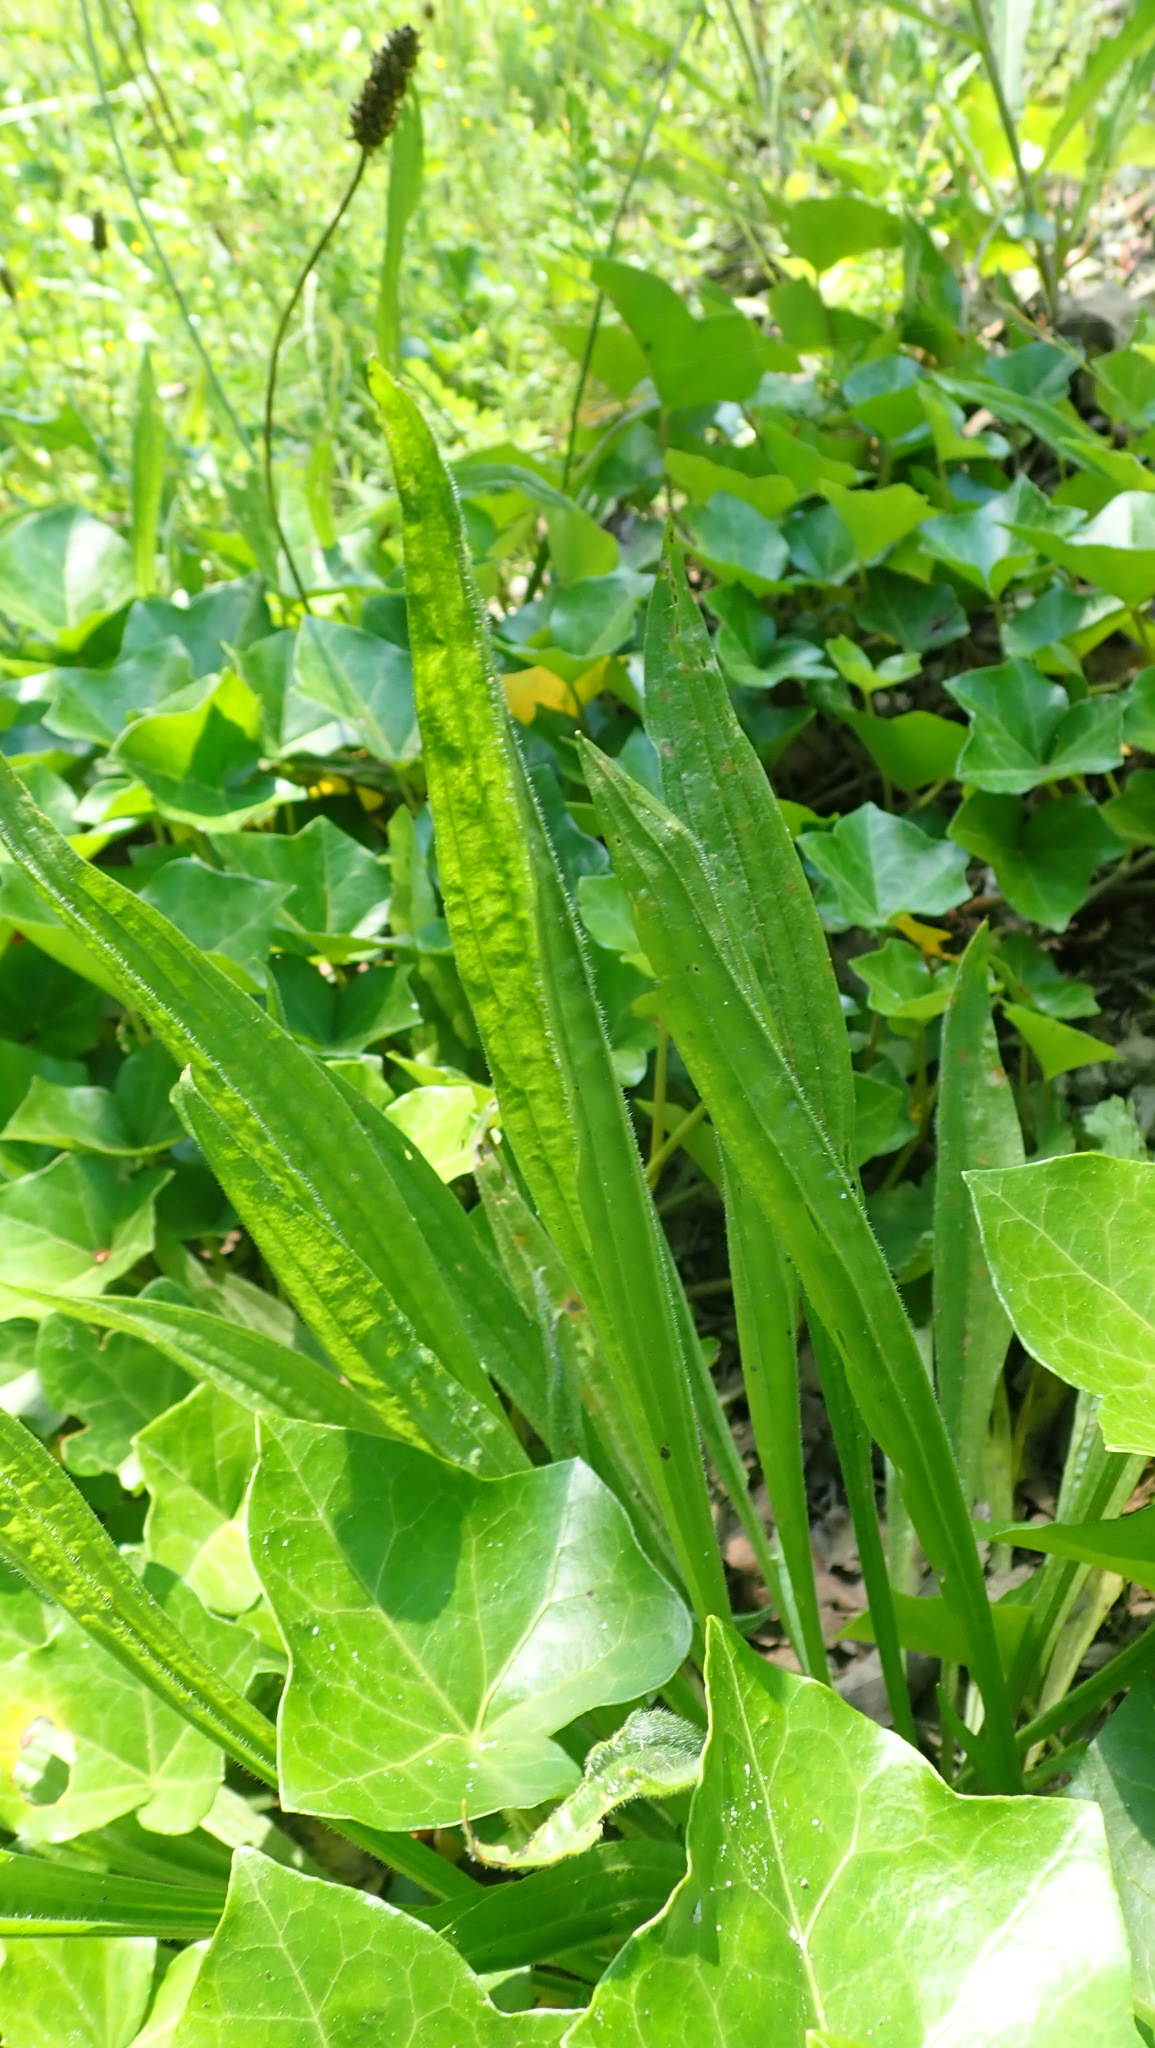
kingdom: Plantae
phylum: Tracheophyta
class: Magnoliopsida
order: Lamiales
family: Plantaginaceae
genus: Plantago
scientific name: Plantago lanceolata
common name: Ribwort plantain
